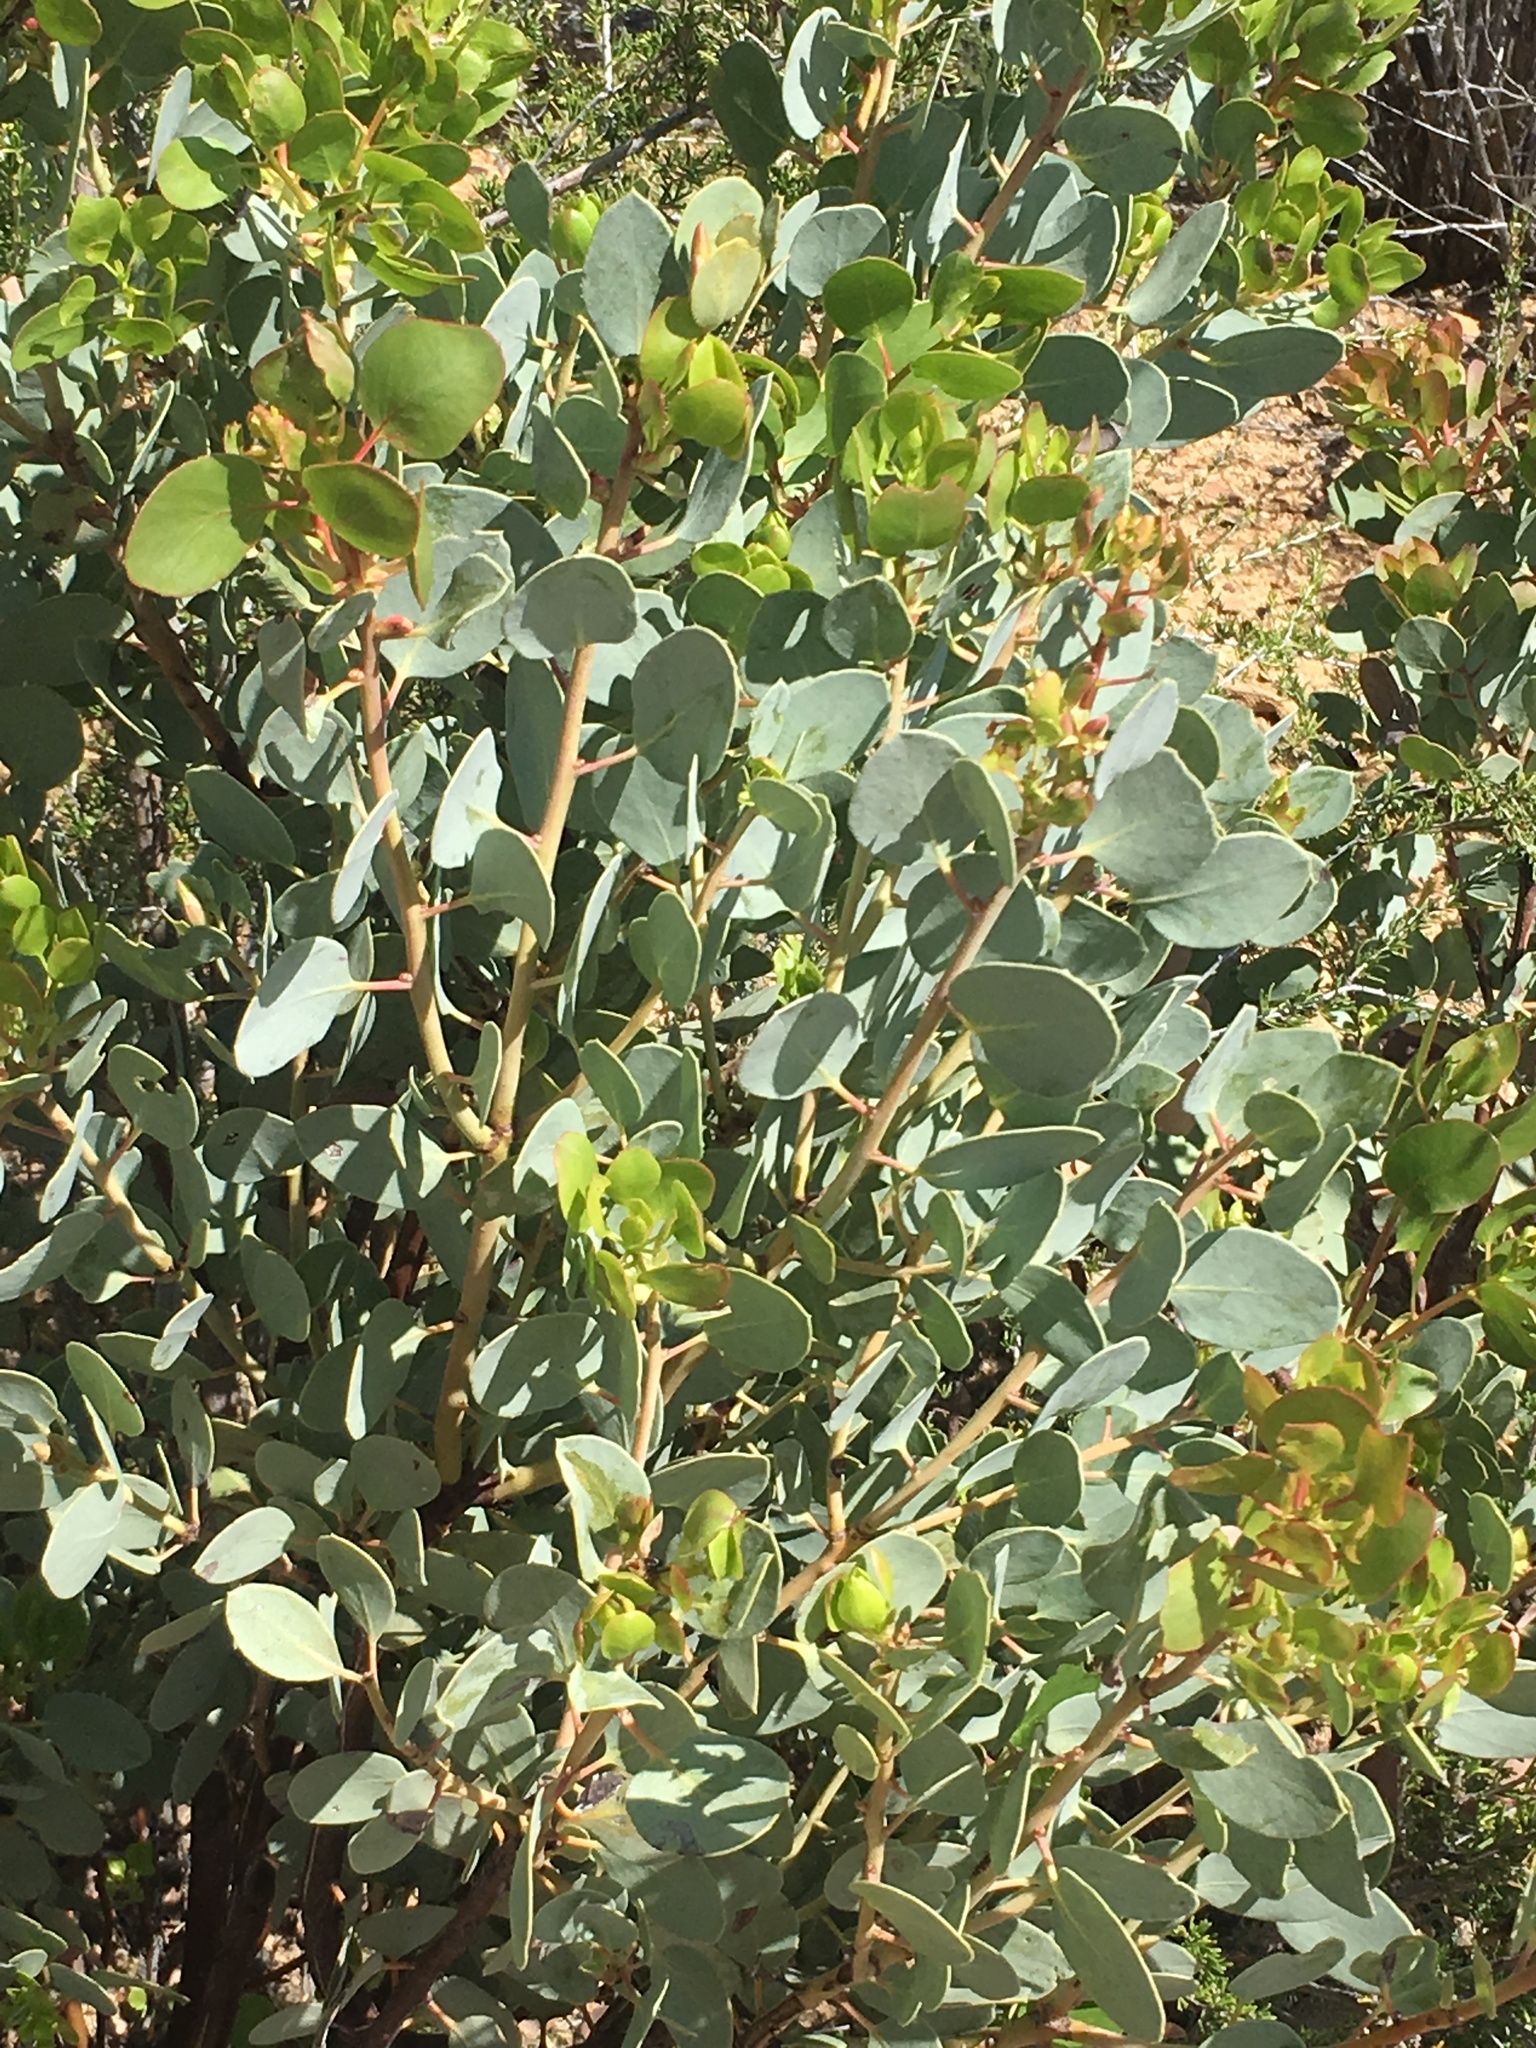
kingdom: Plantae
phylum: Tracheophyta
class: Magnoliopsida
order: Ericales
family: Ericaceae
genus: Arctostaphylos
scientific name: Arctostaphylos glauca
